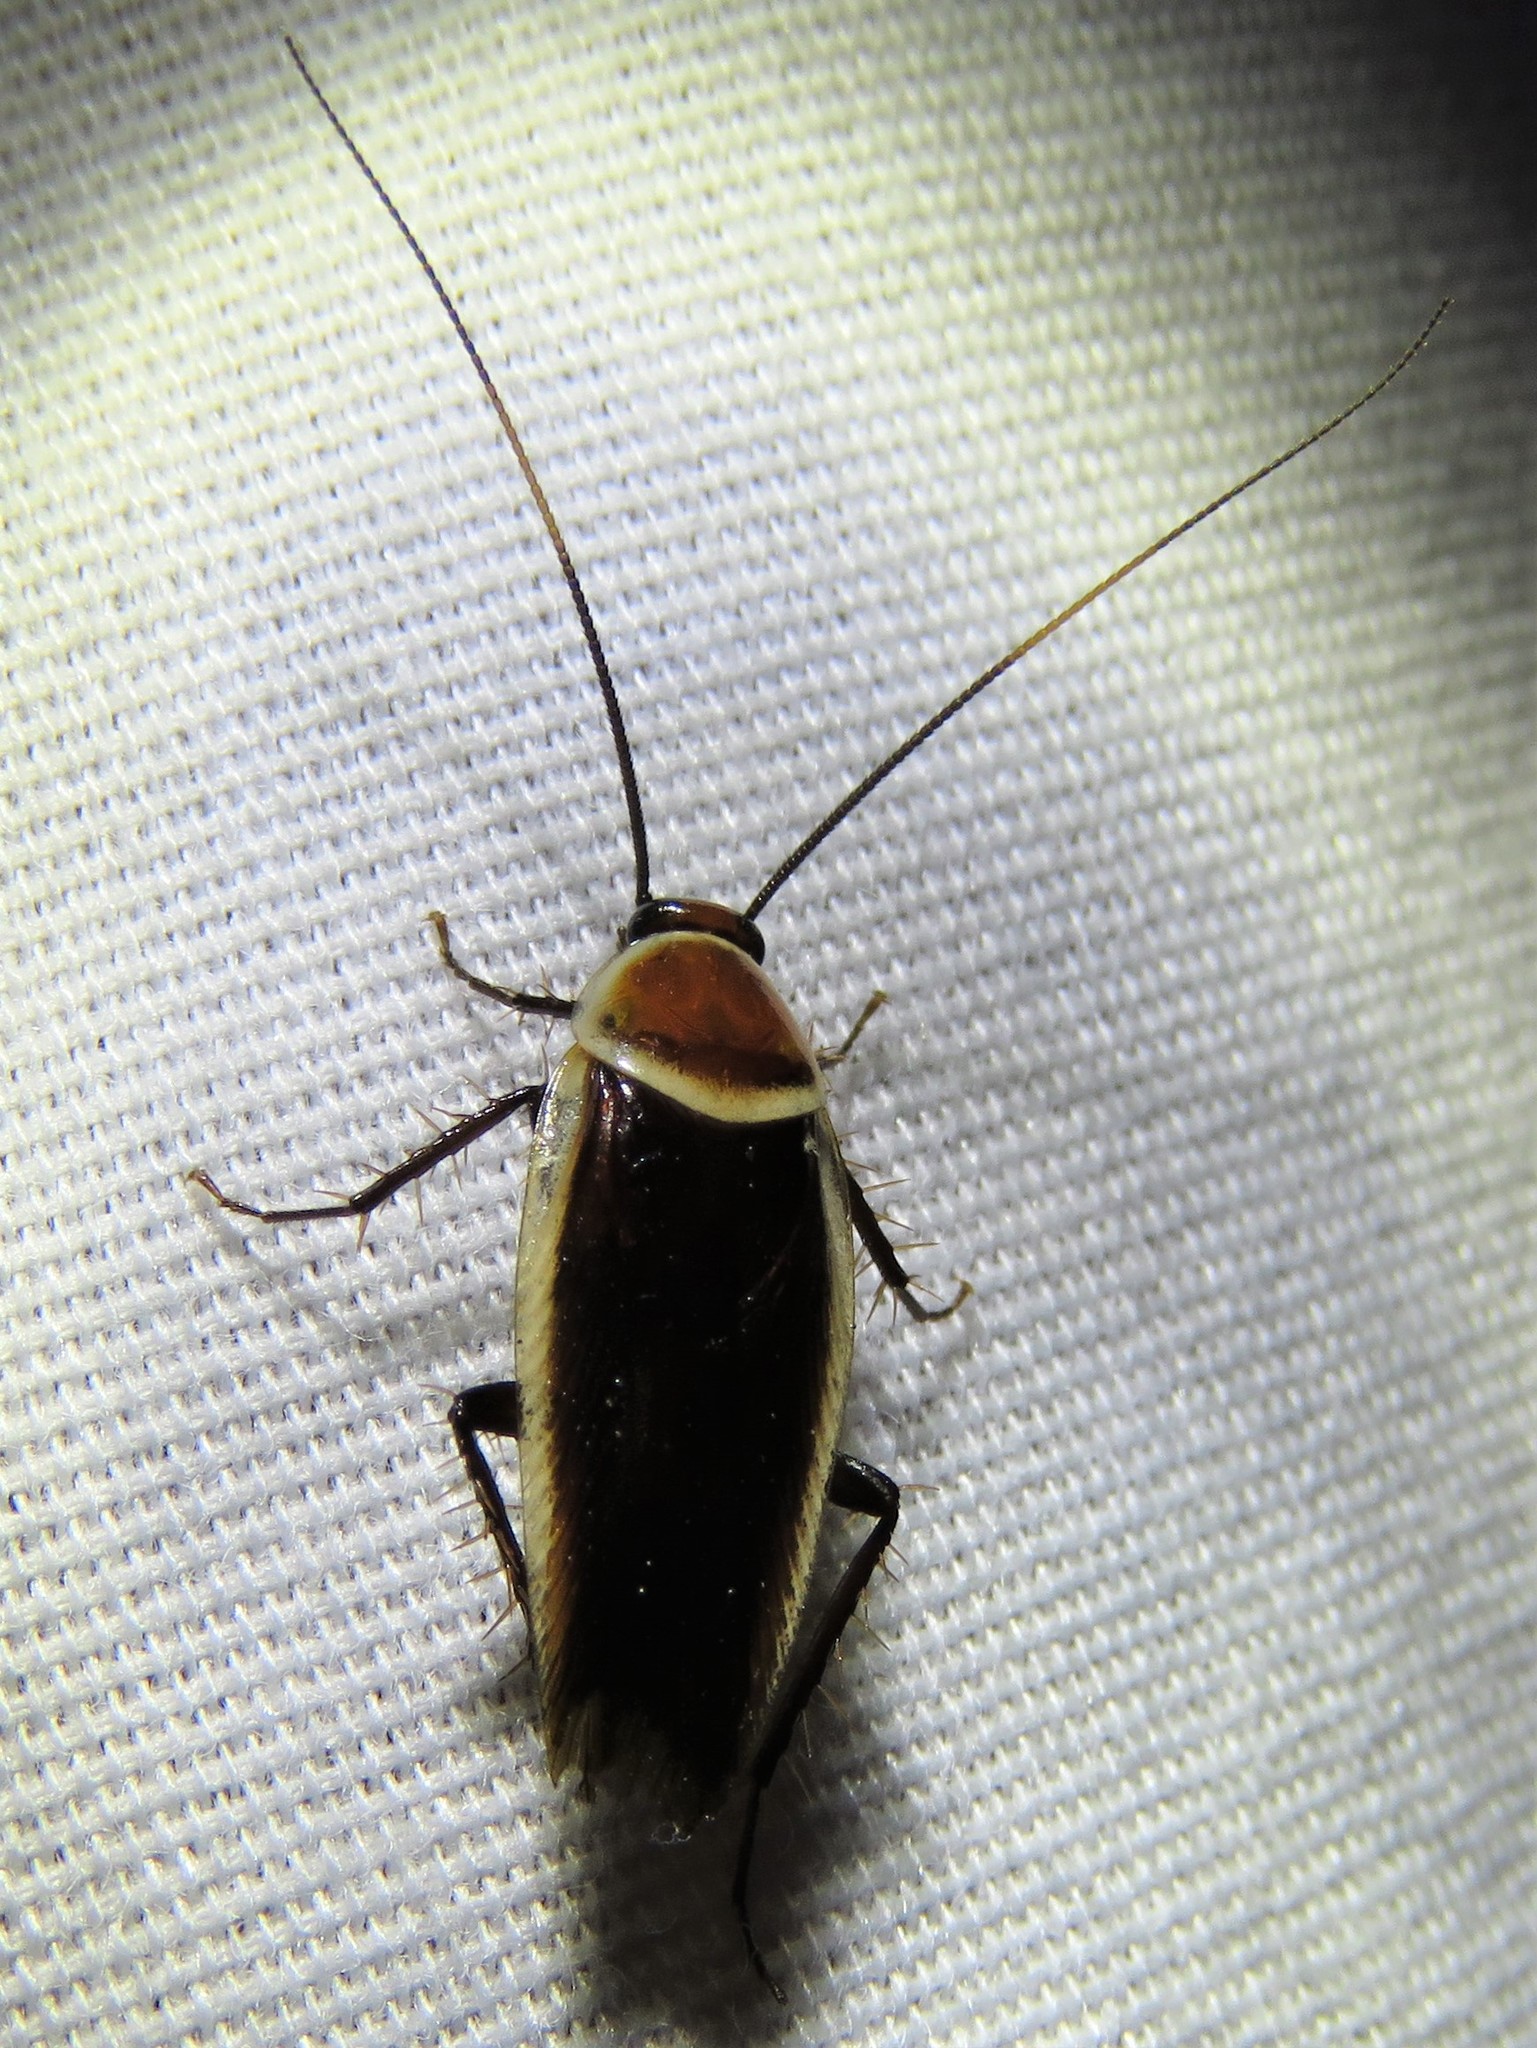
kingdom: Animalia
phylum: Arthropoda
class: Insecta
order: Blattodea
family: Ectobiidae
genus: Pseudomops
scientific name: Pseudomops septentrionalis
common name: Pale-bordered field cockroach
